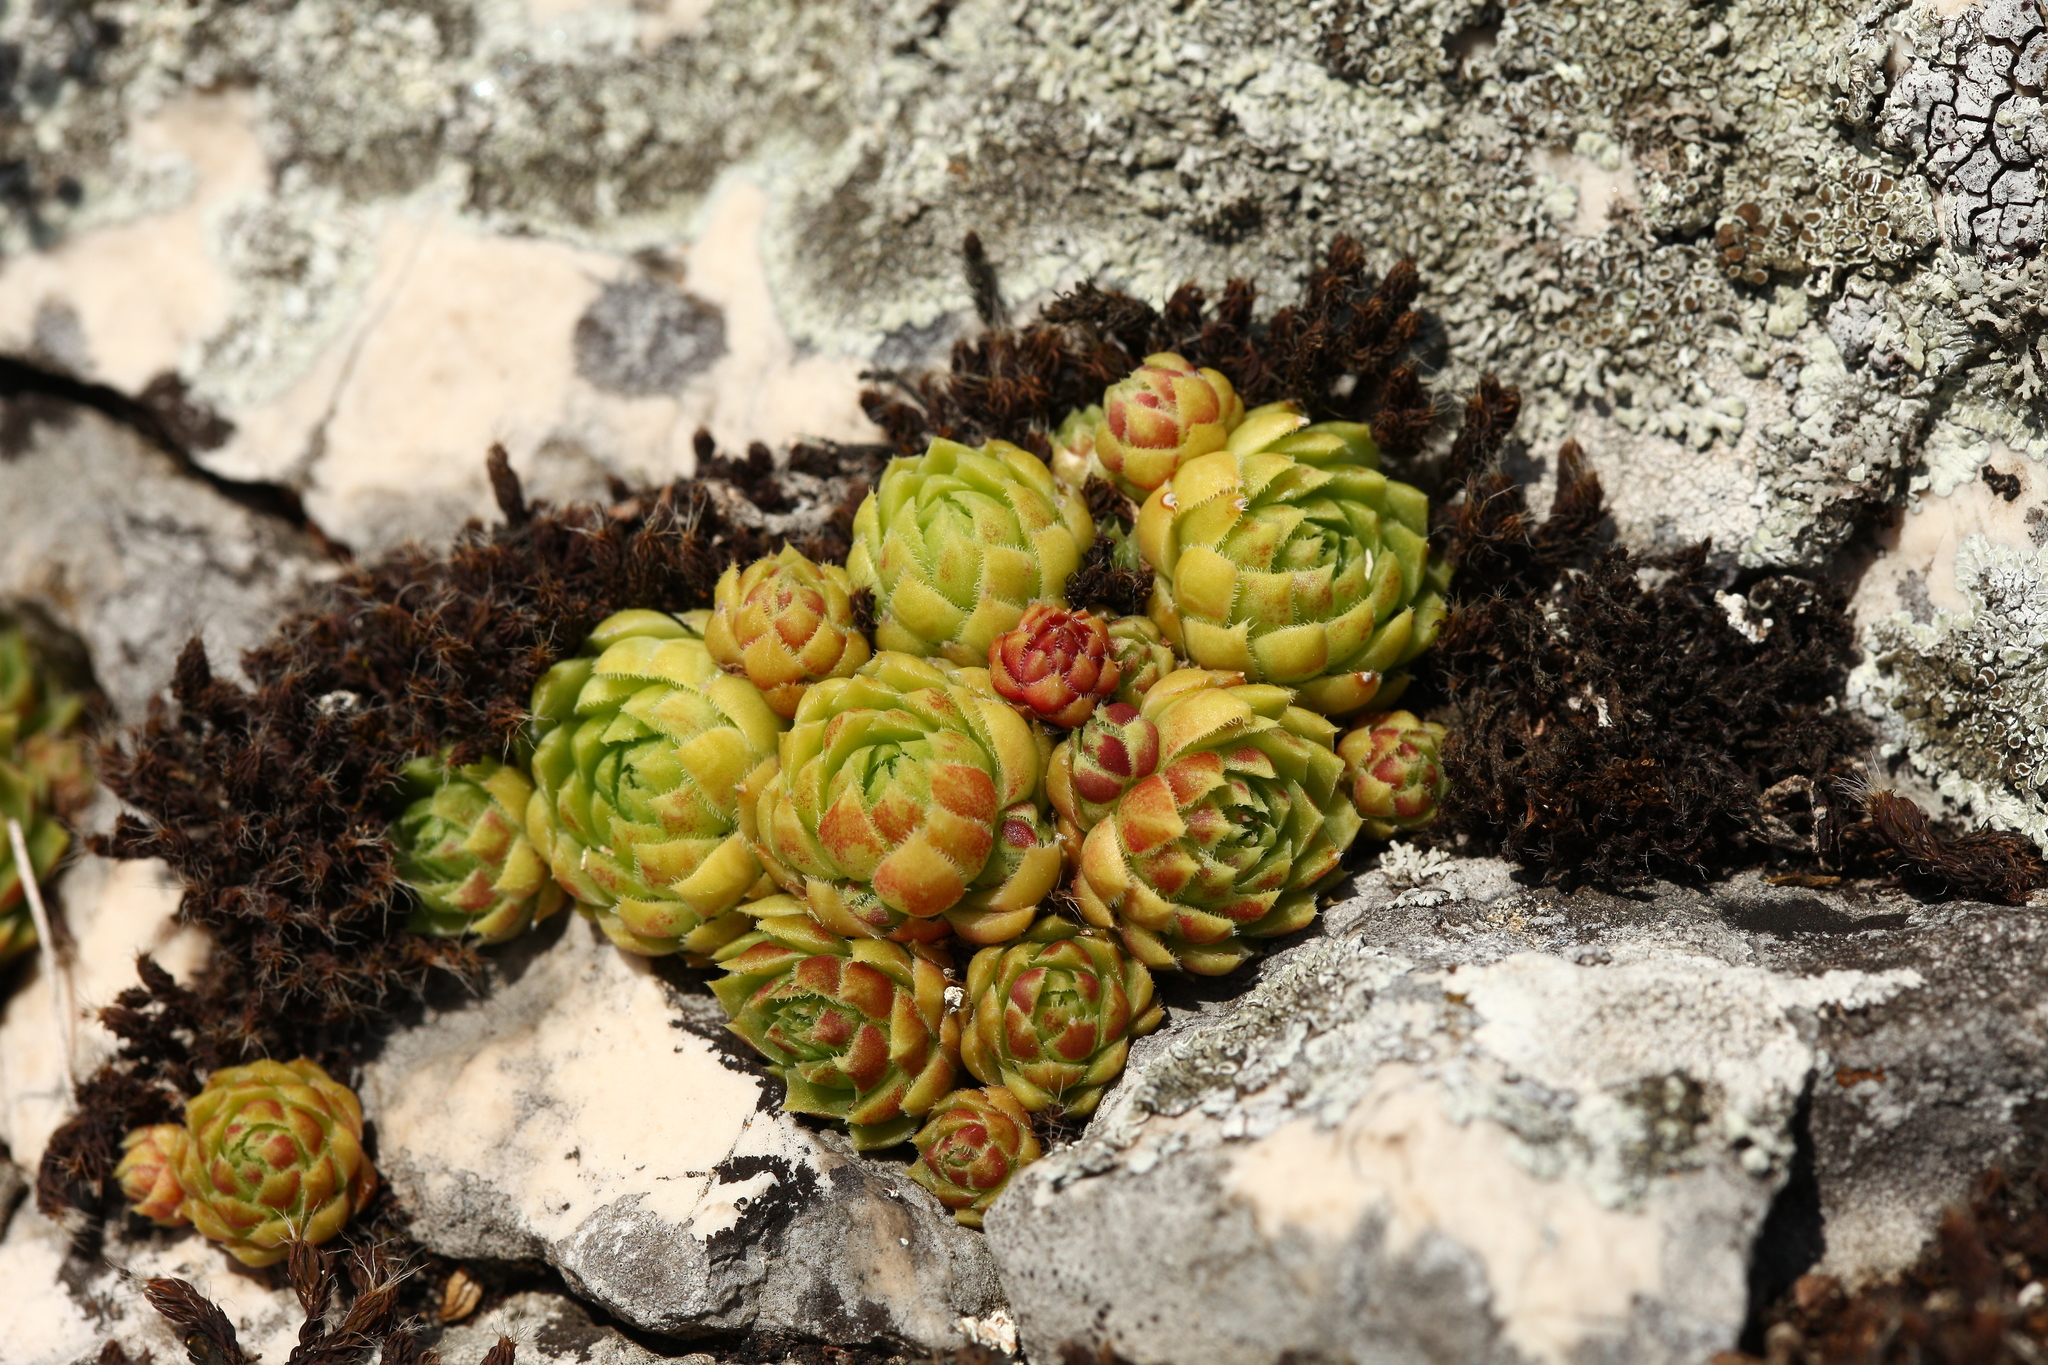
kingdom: Plantae
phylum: Tracheophyta
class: Magnoliopsida
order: Saxifragales
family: Crassulaceae
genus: Sempervivum
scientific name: Sempervivum globiferum
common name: Rolling hen-and-chicks
